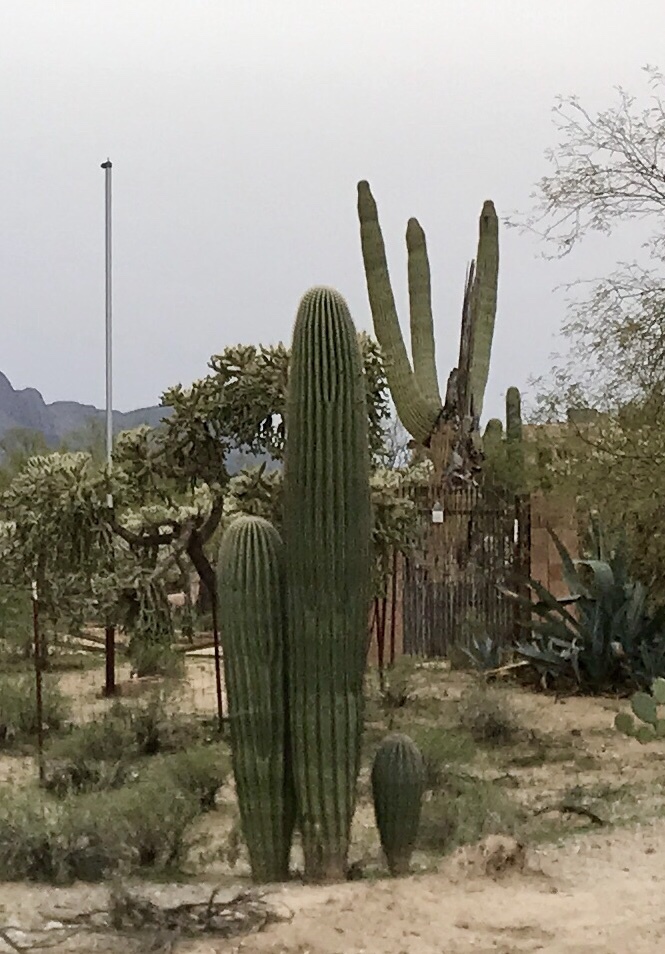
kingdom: Plantae
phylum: Tracheophyta
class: Magnoliopsida
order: Caryophyllales
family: Cactaceae
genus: Carnegiea
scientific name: Carnegiea gigantea
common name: Saguaro
